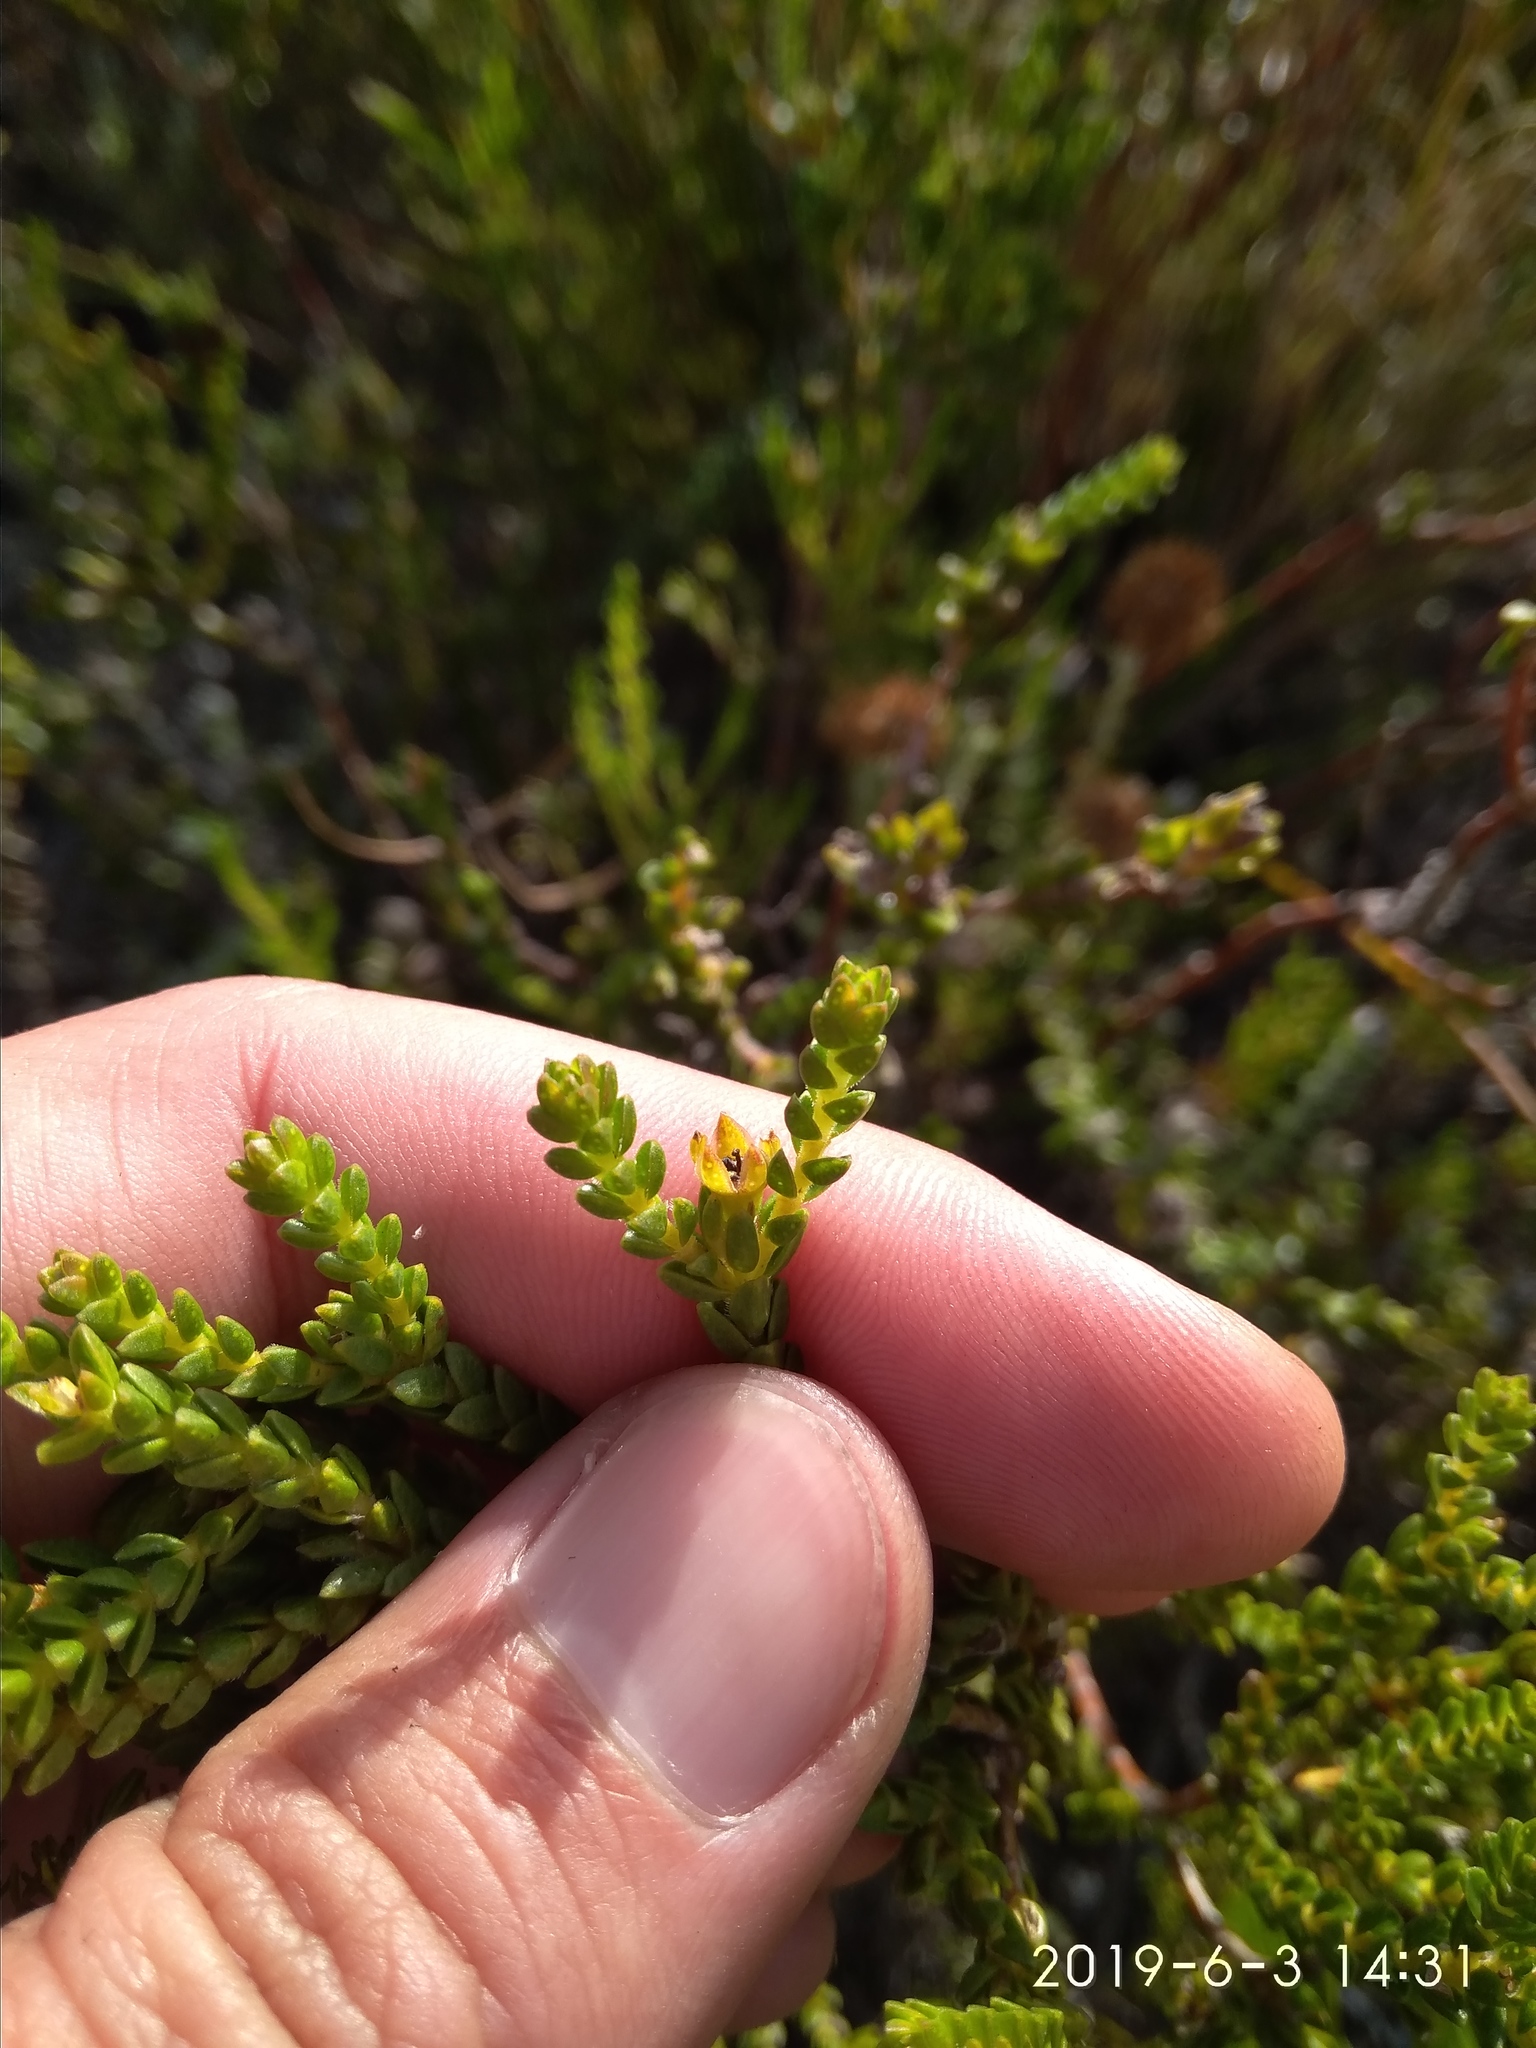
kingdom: Plantae
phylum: Tracheophyta
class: Magnoliopsida
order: Sapindales
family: Rutaceae
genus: Diosma
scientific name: Diosma oppositifolia
